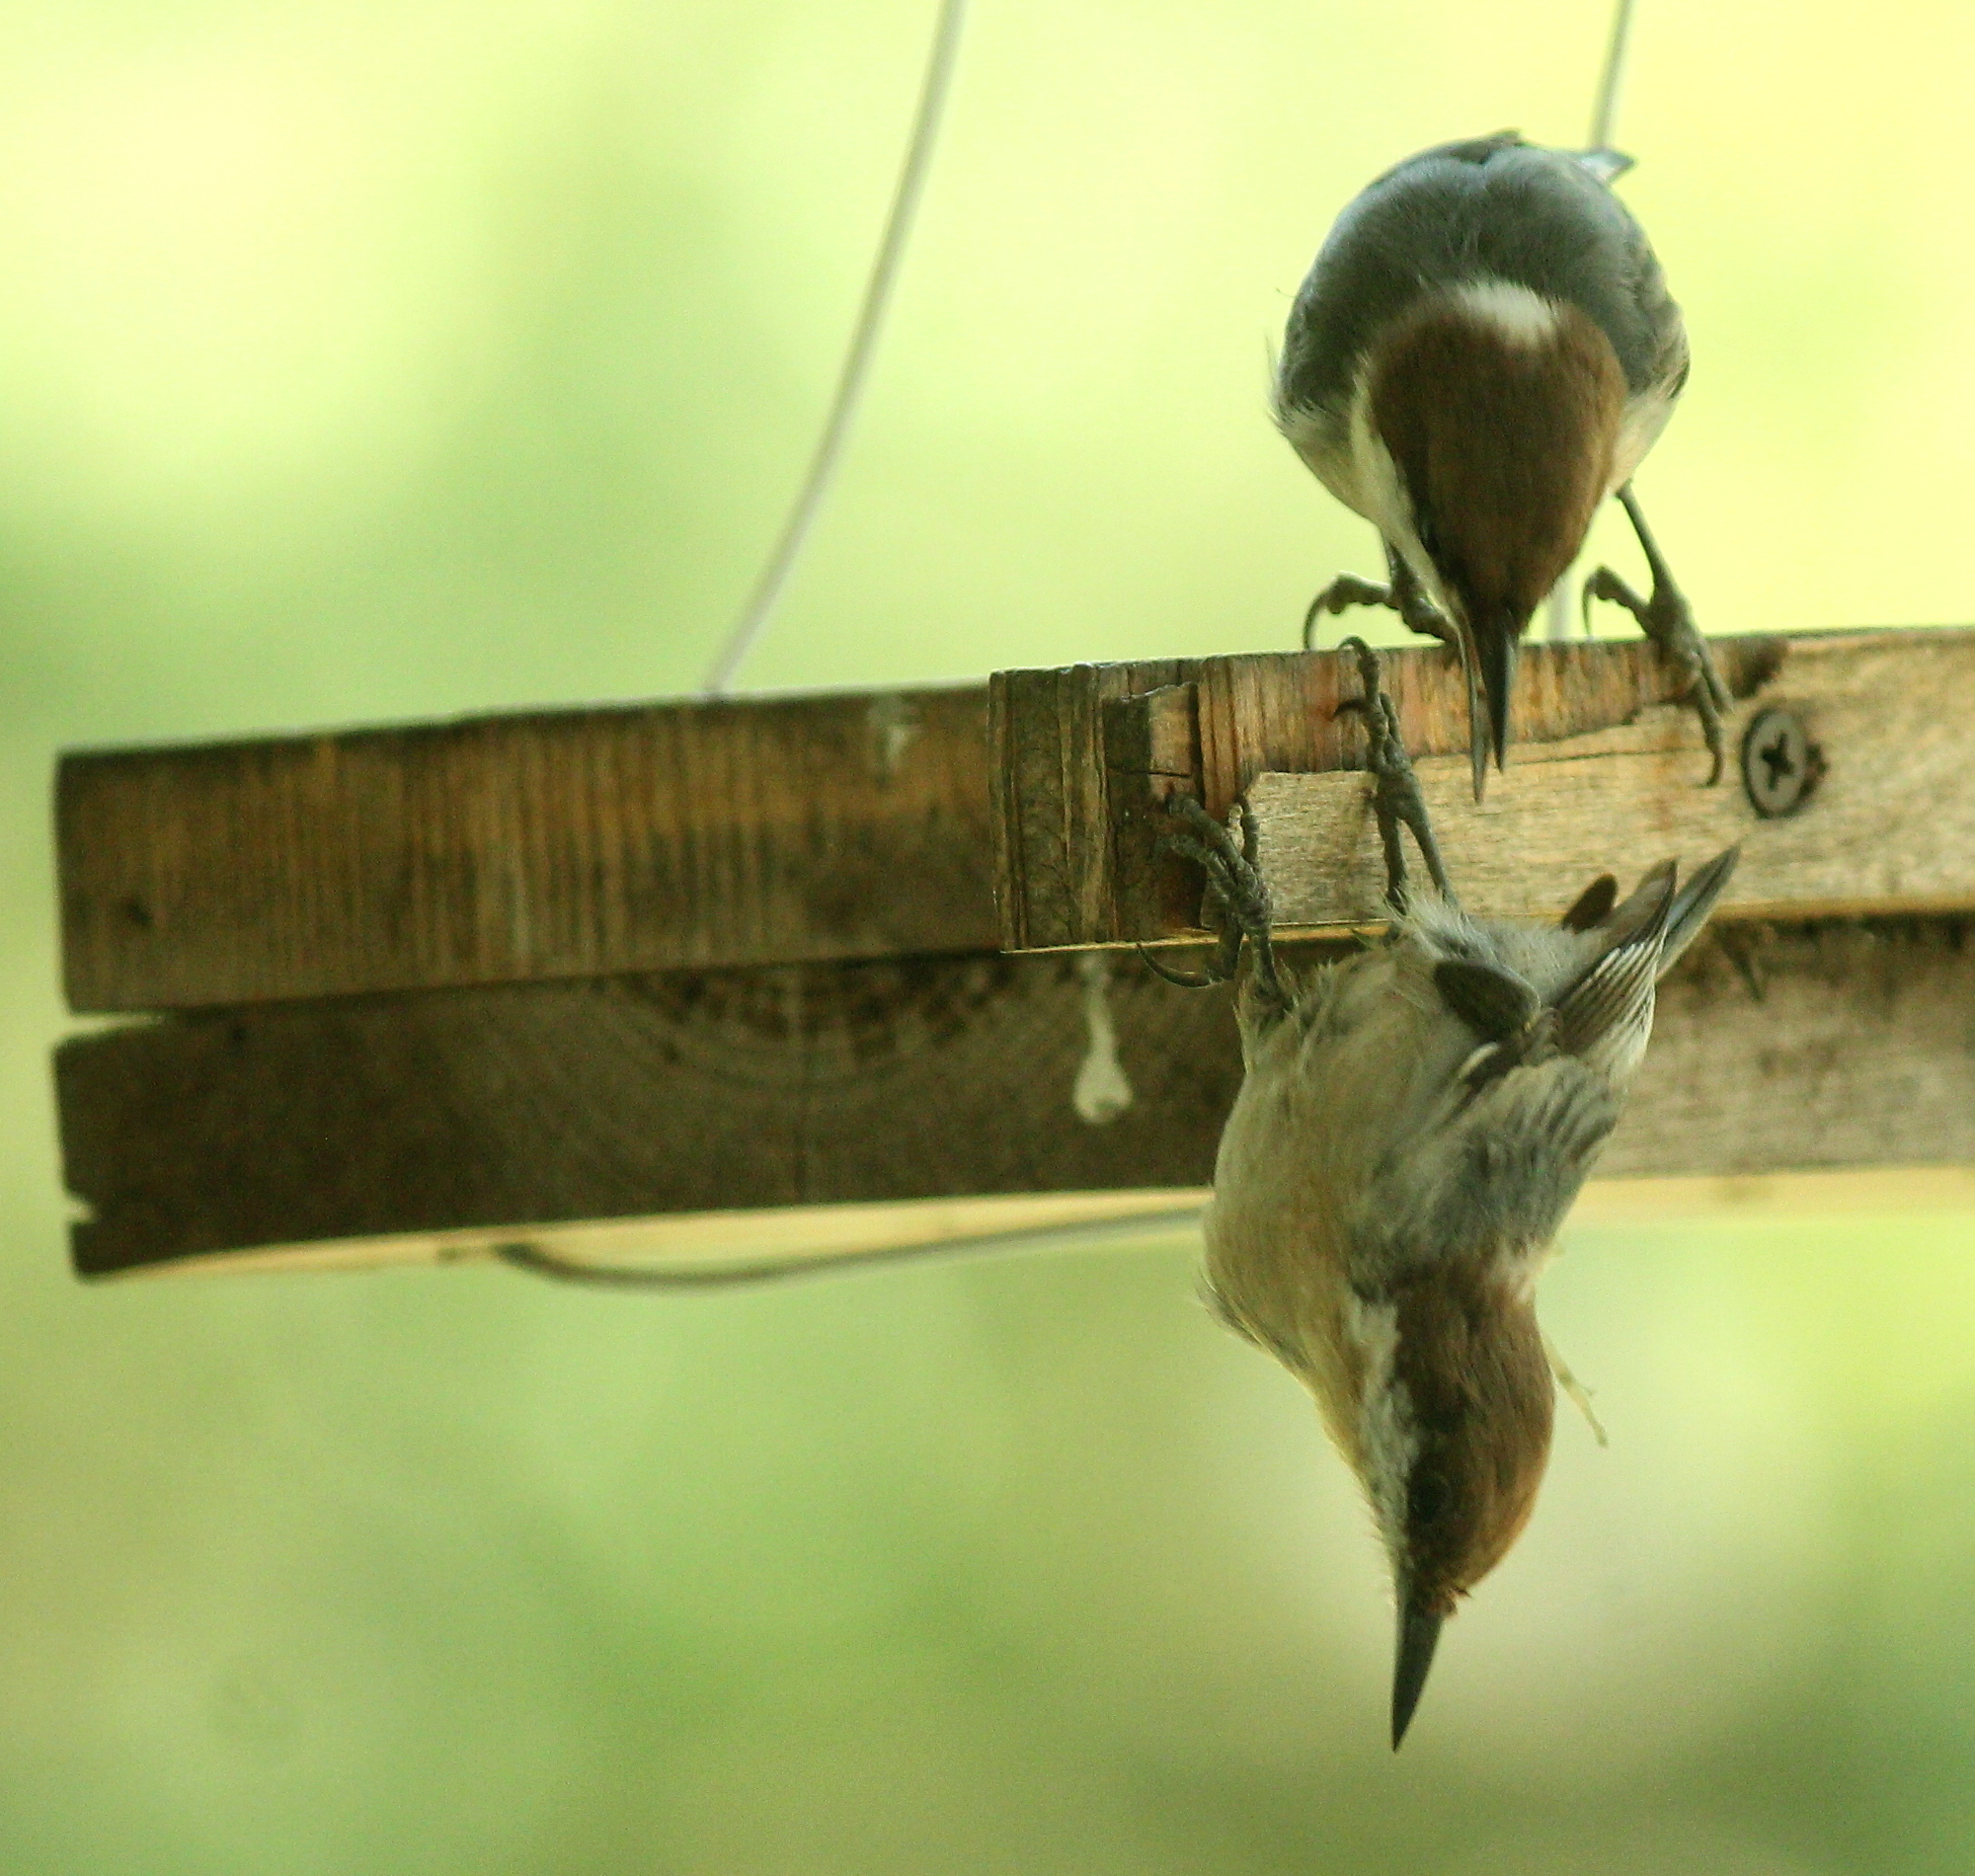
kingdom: Animalia
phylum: Chordata
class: Aves
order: Passeriformes
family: Sittidae
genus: Sitta
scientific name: Sitta pusilla
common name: Brown-headed nuthatch
